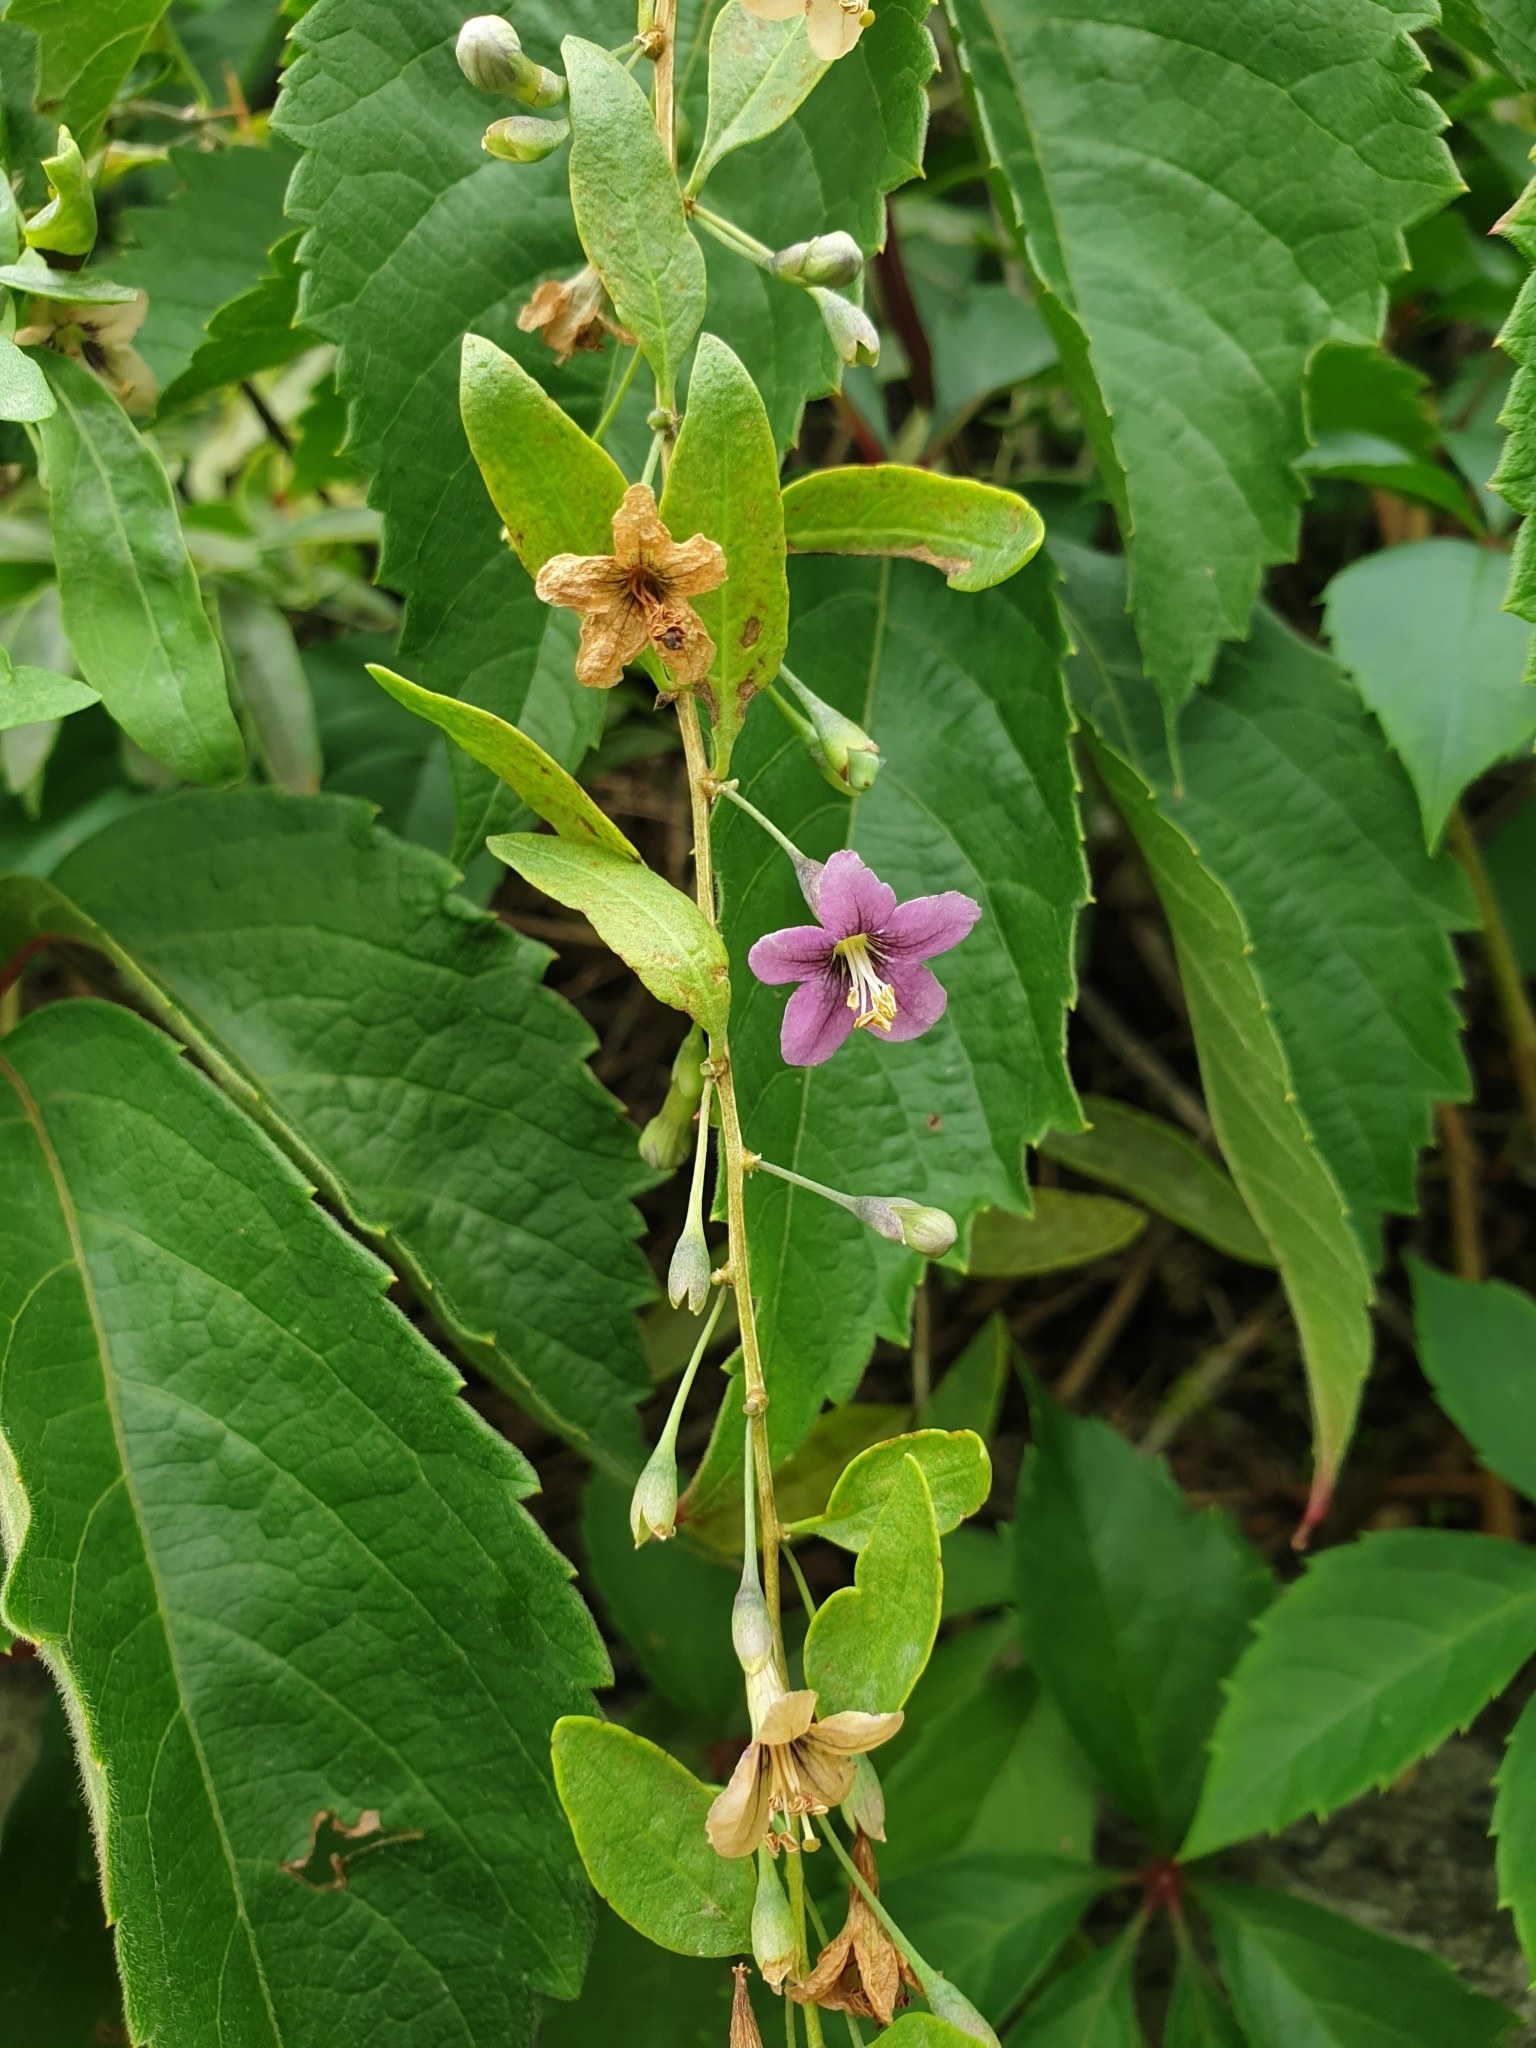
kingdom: Plantae
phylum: Tracheophyta
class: Magnoliopsida
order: Solanales
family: Solanaceae
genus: Lycium
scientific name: Lycium barbarum
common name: Duke of argyll's teaplant
